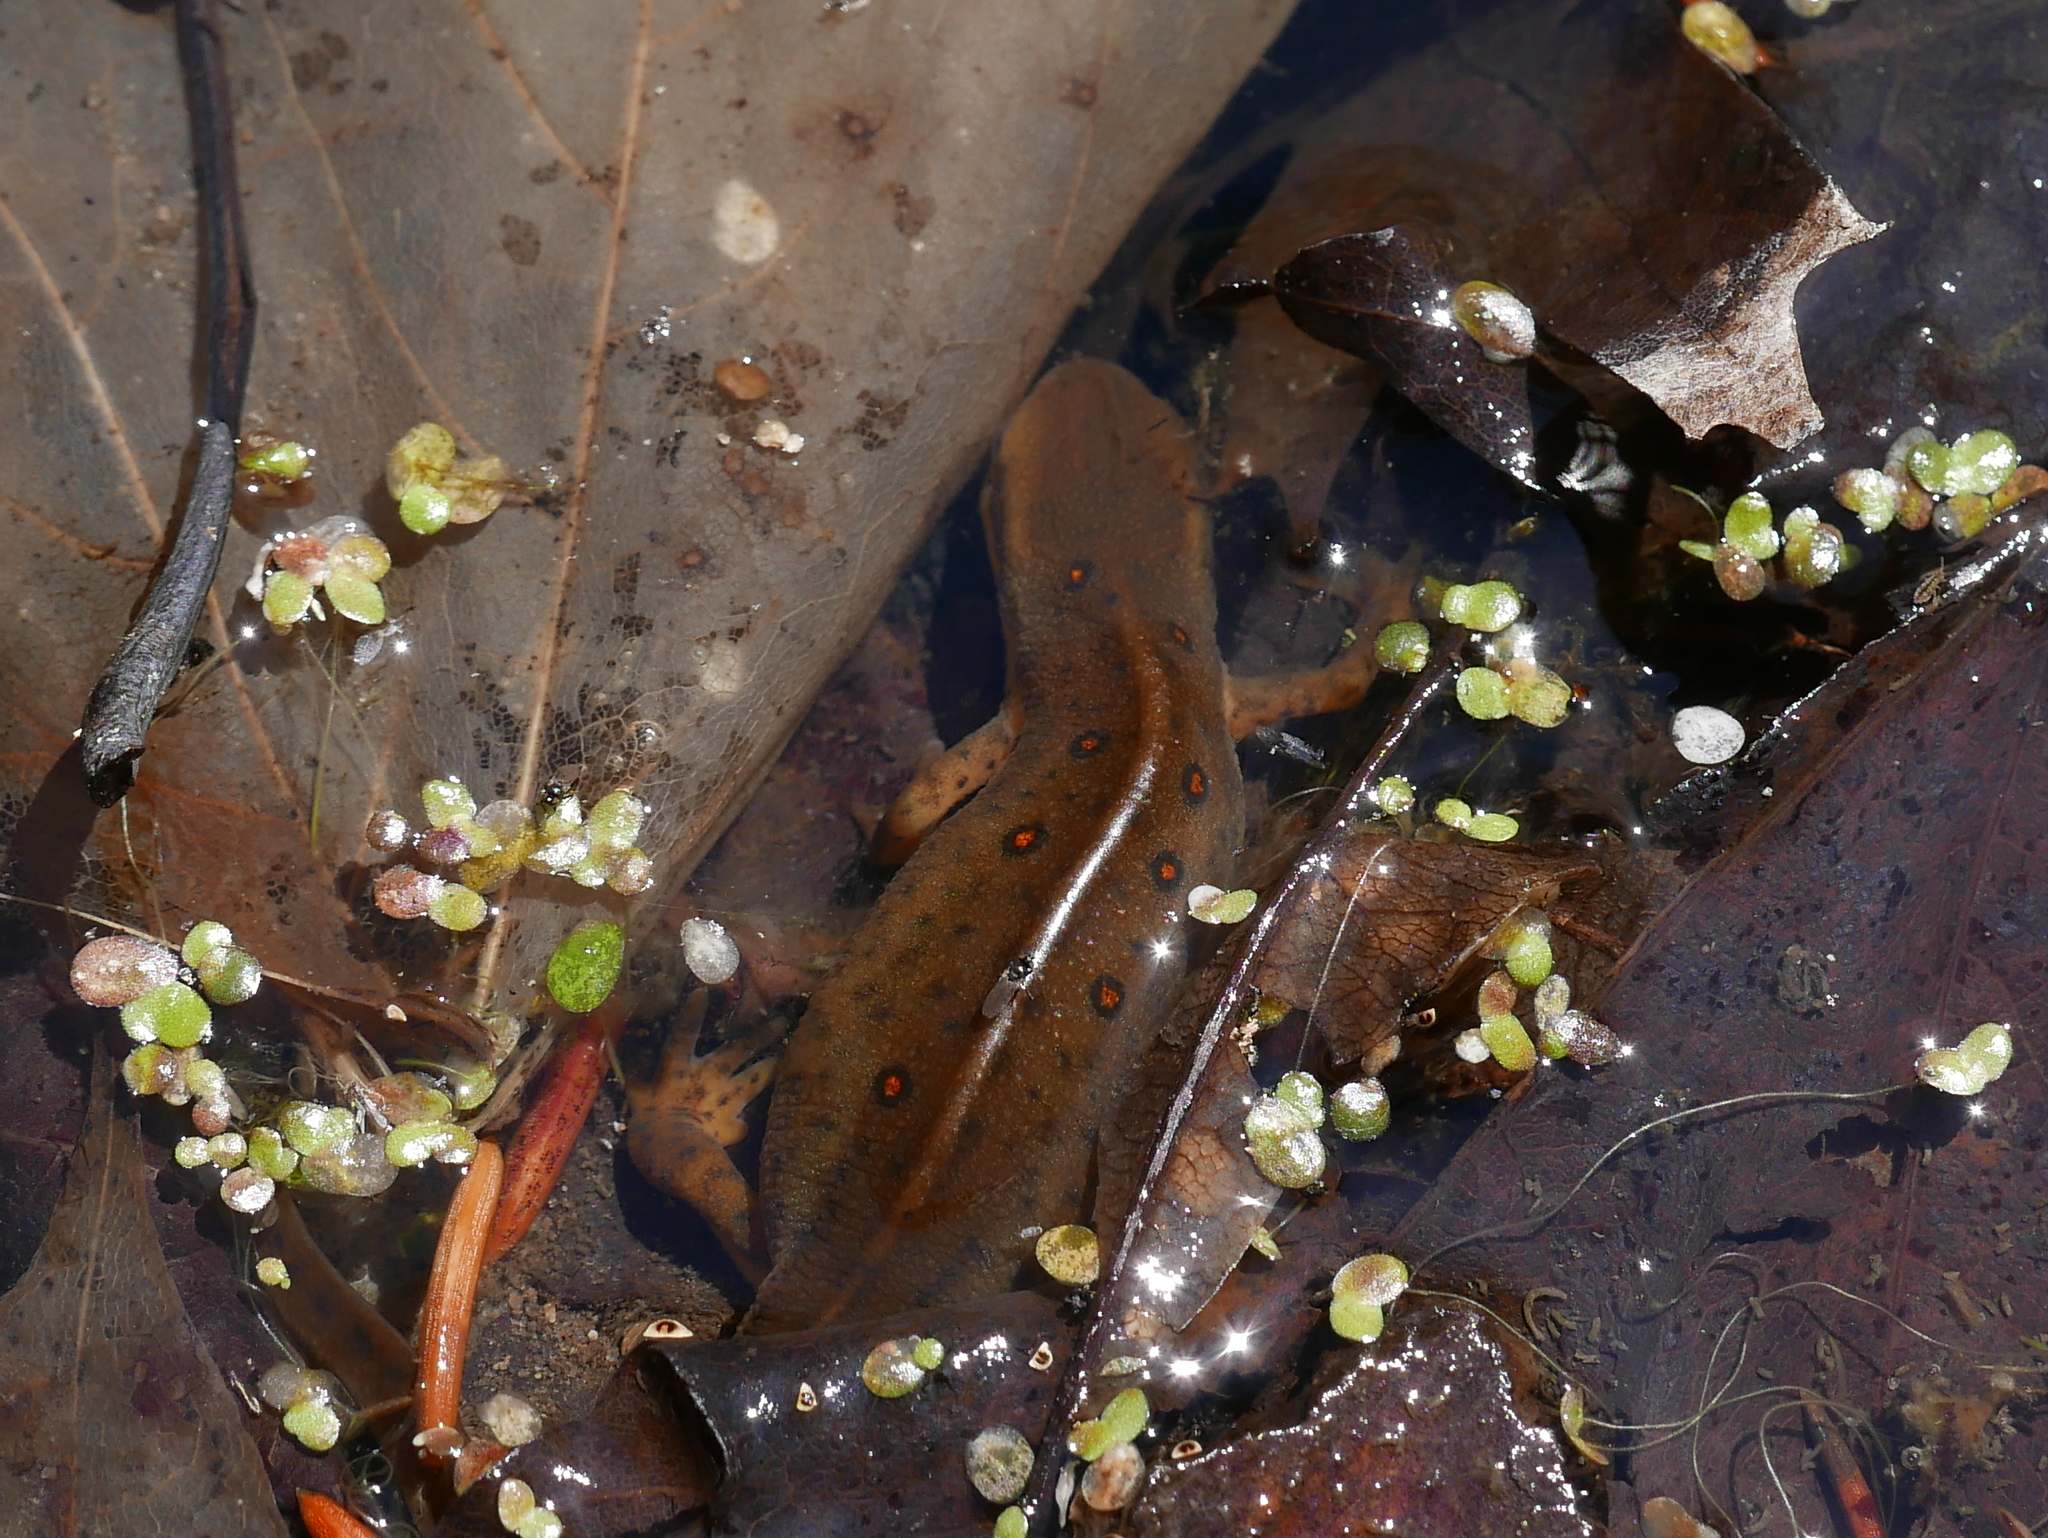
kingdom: Animalia
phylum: Chordata
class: Amphibia
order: Caudata
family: Salamandridae
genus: Notophthalmus
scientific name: Notophthalmus viridescens
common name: Eastern newt
